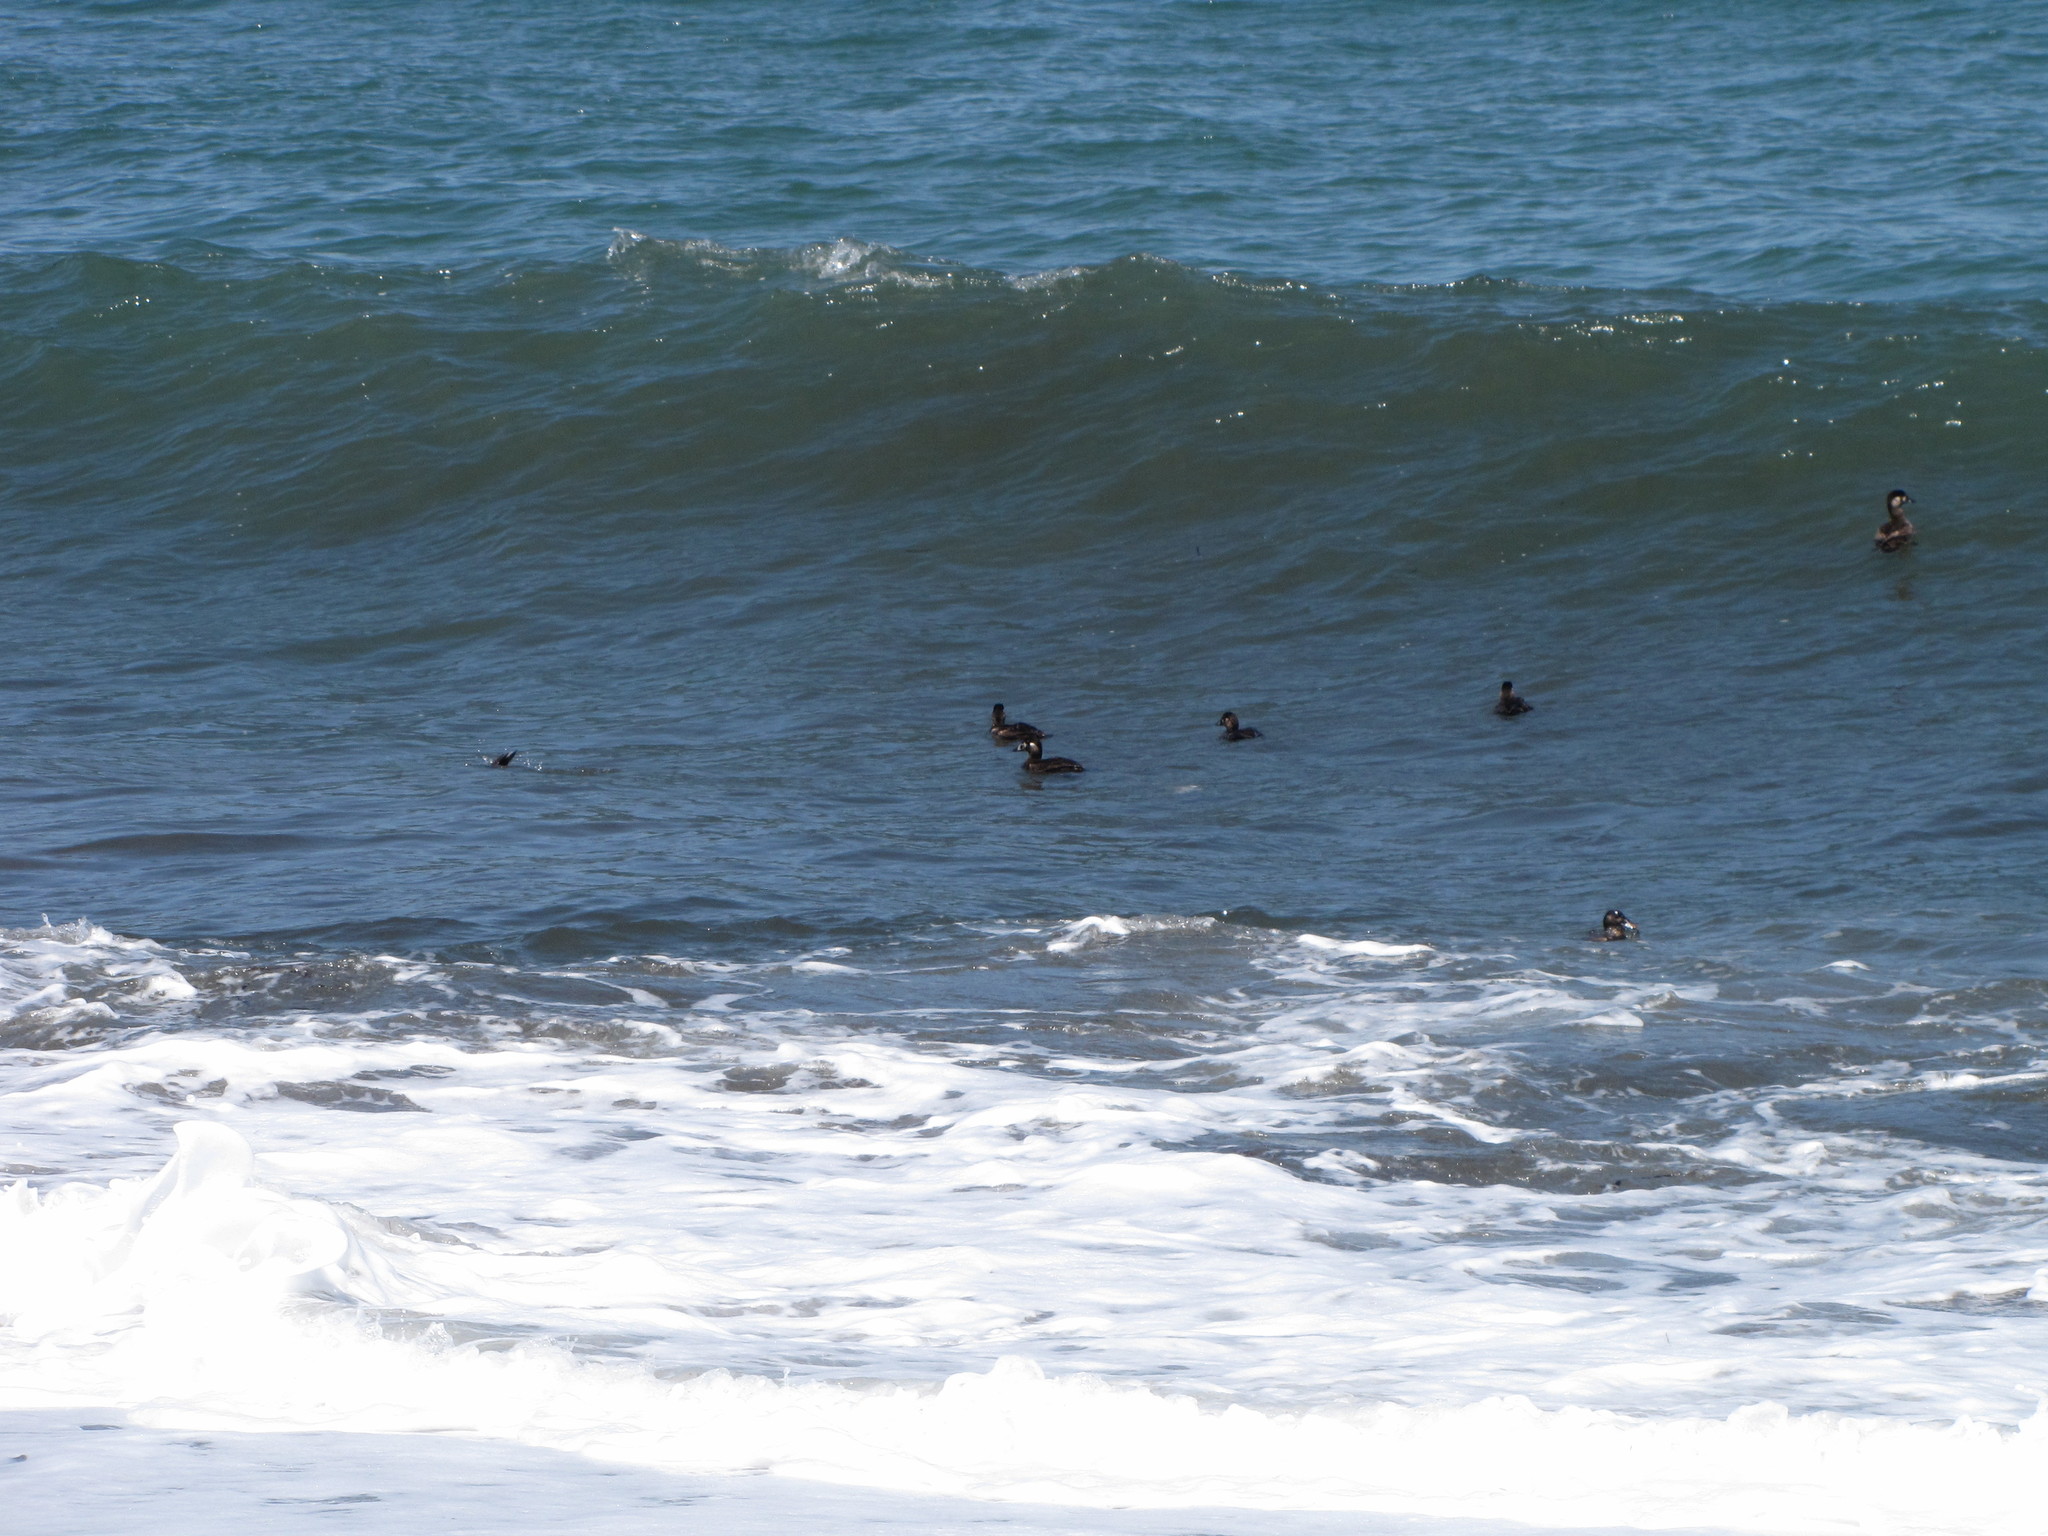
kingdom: Animalia
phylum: Chordata
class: Aves
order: Anseriformes
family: Anatidae
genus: Melanitta
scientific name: Melanitta perspicillata
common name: Surf scoter
